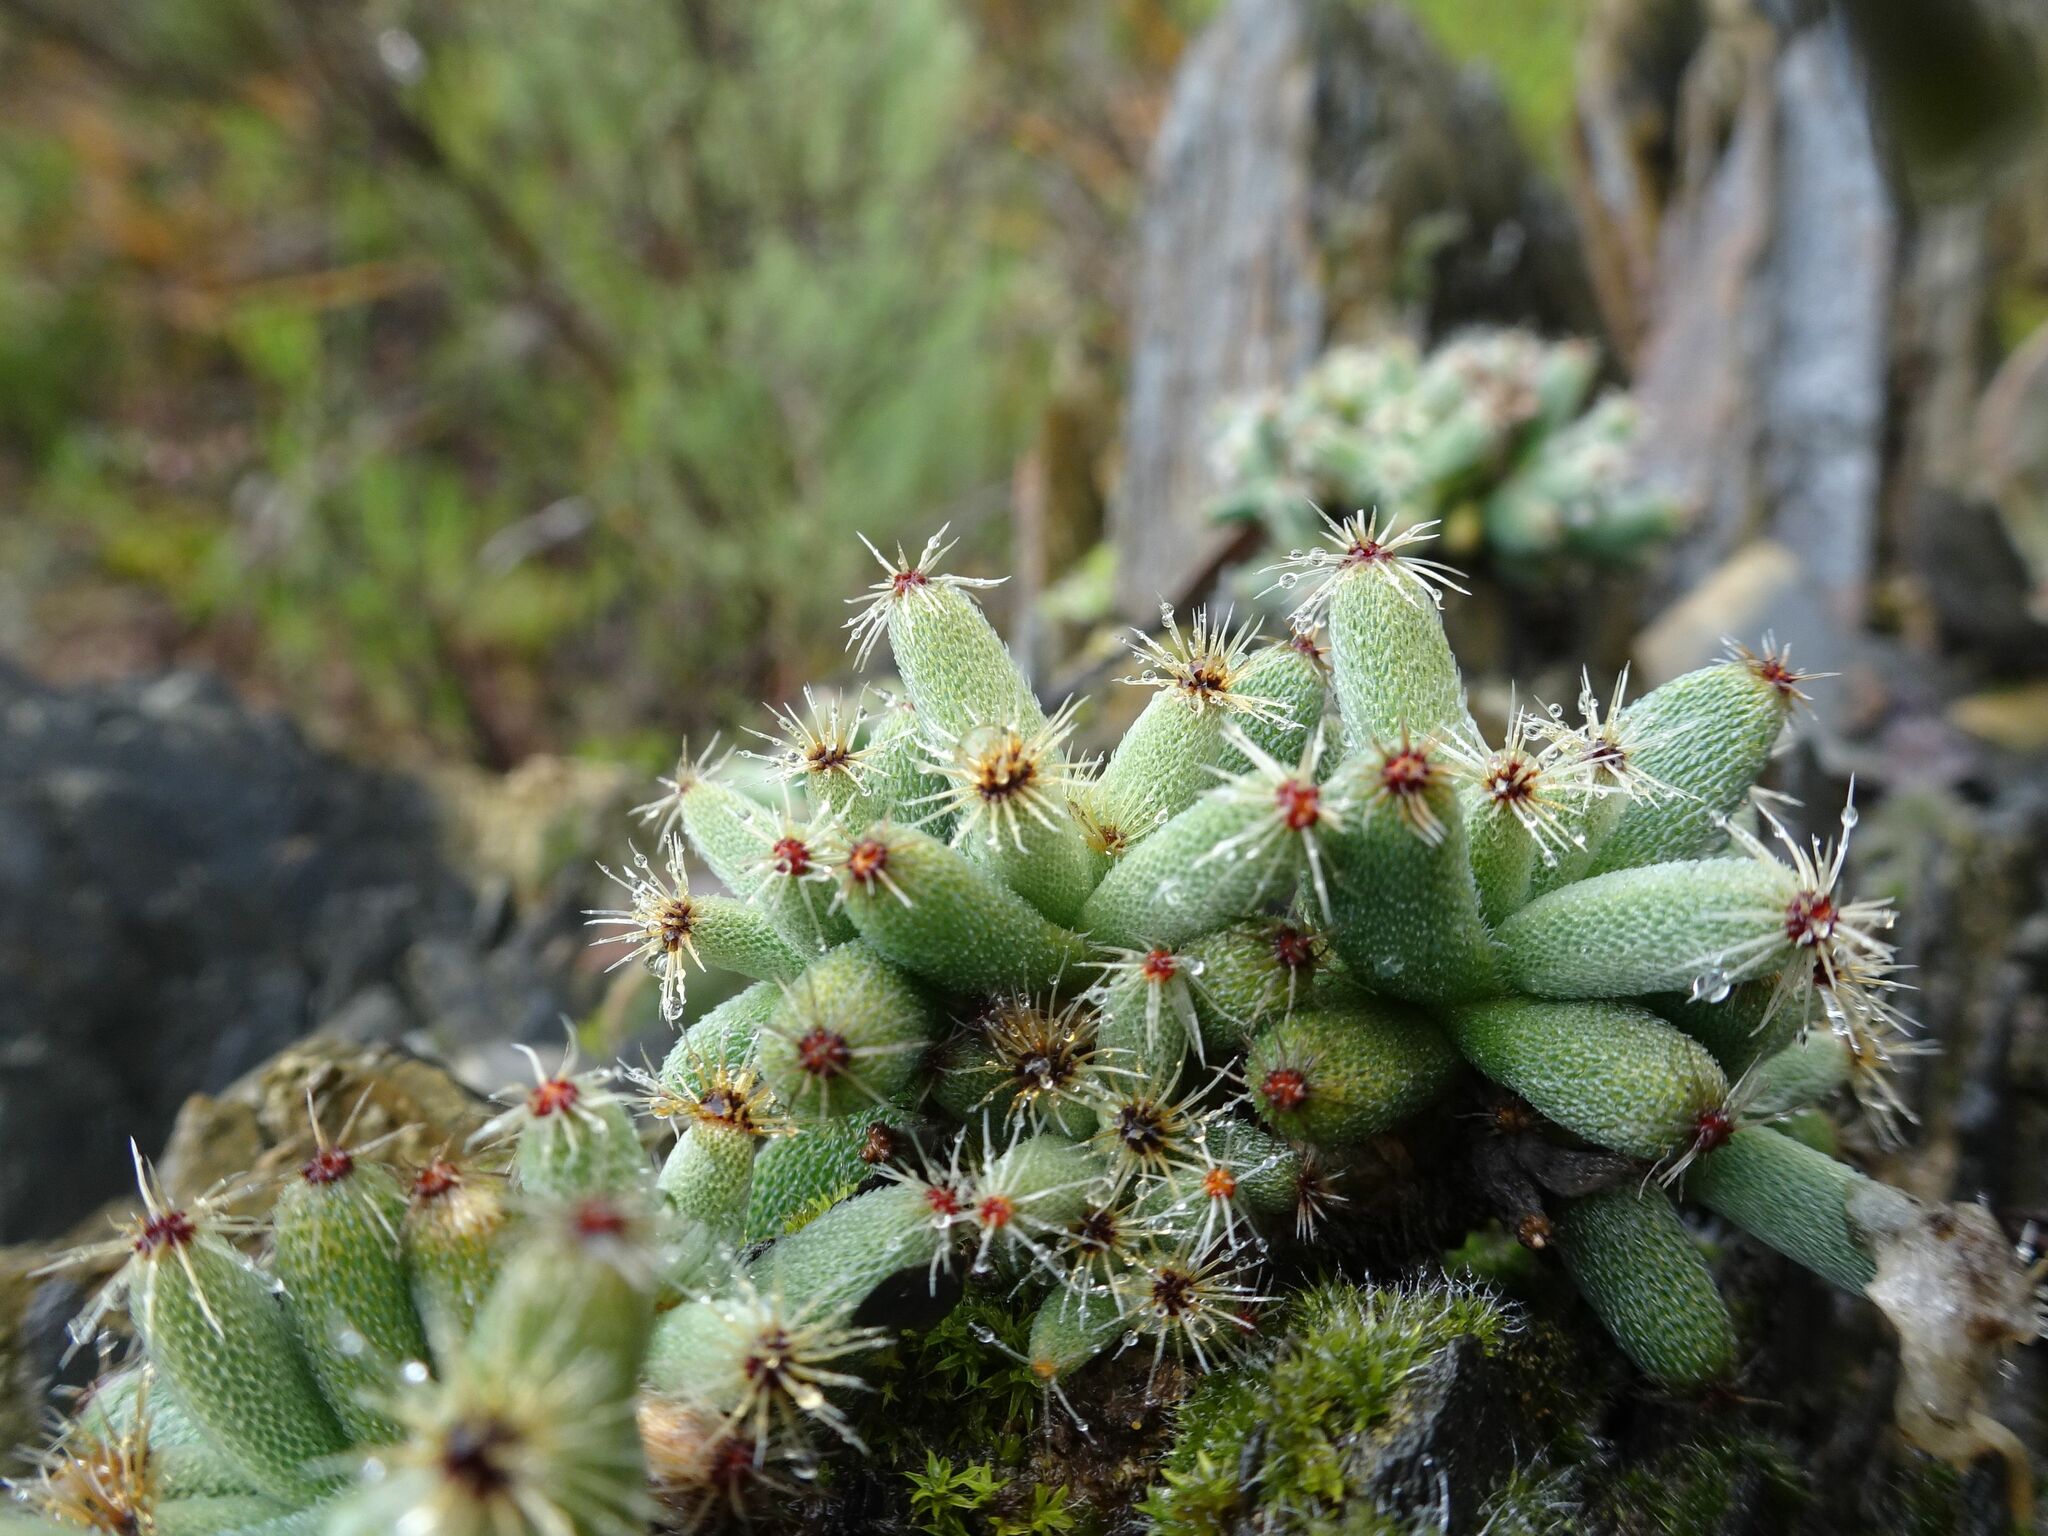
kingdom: Plantae
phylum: Tracheophyta
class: Magnoliopsida
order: Caryophyllales
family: Aizoaceae
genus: Trichodiadema
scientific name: Trichodiadema marlothii
